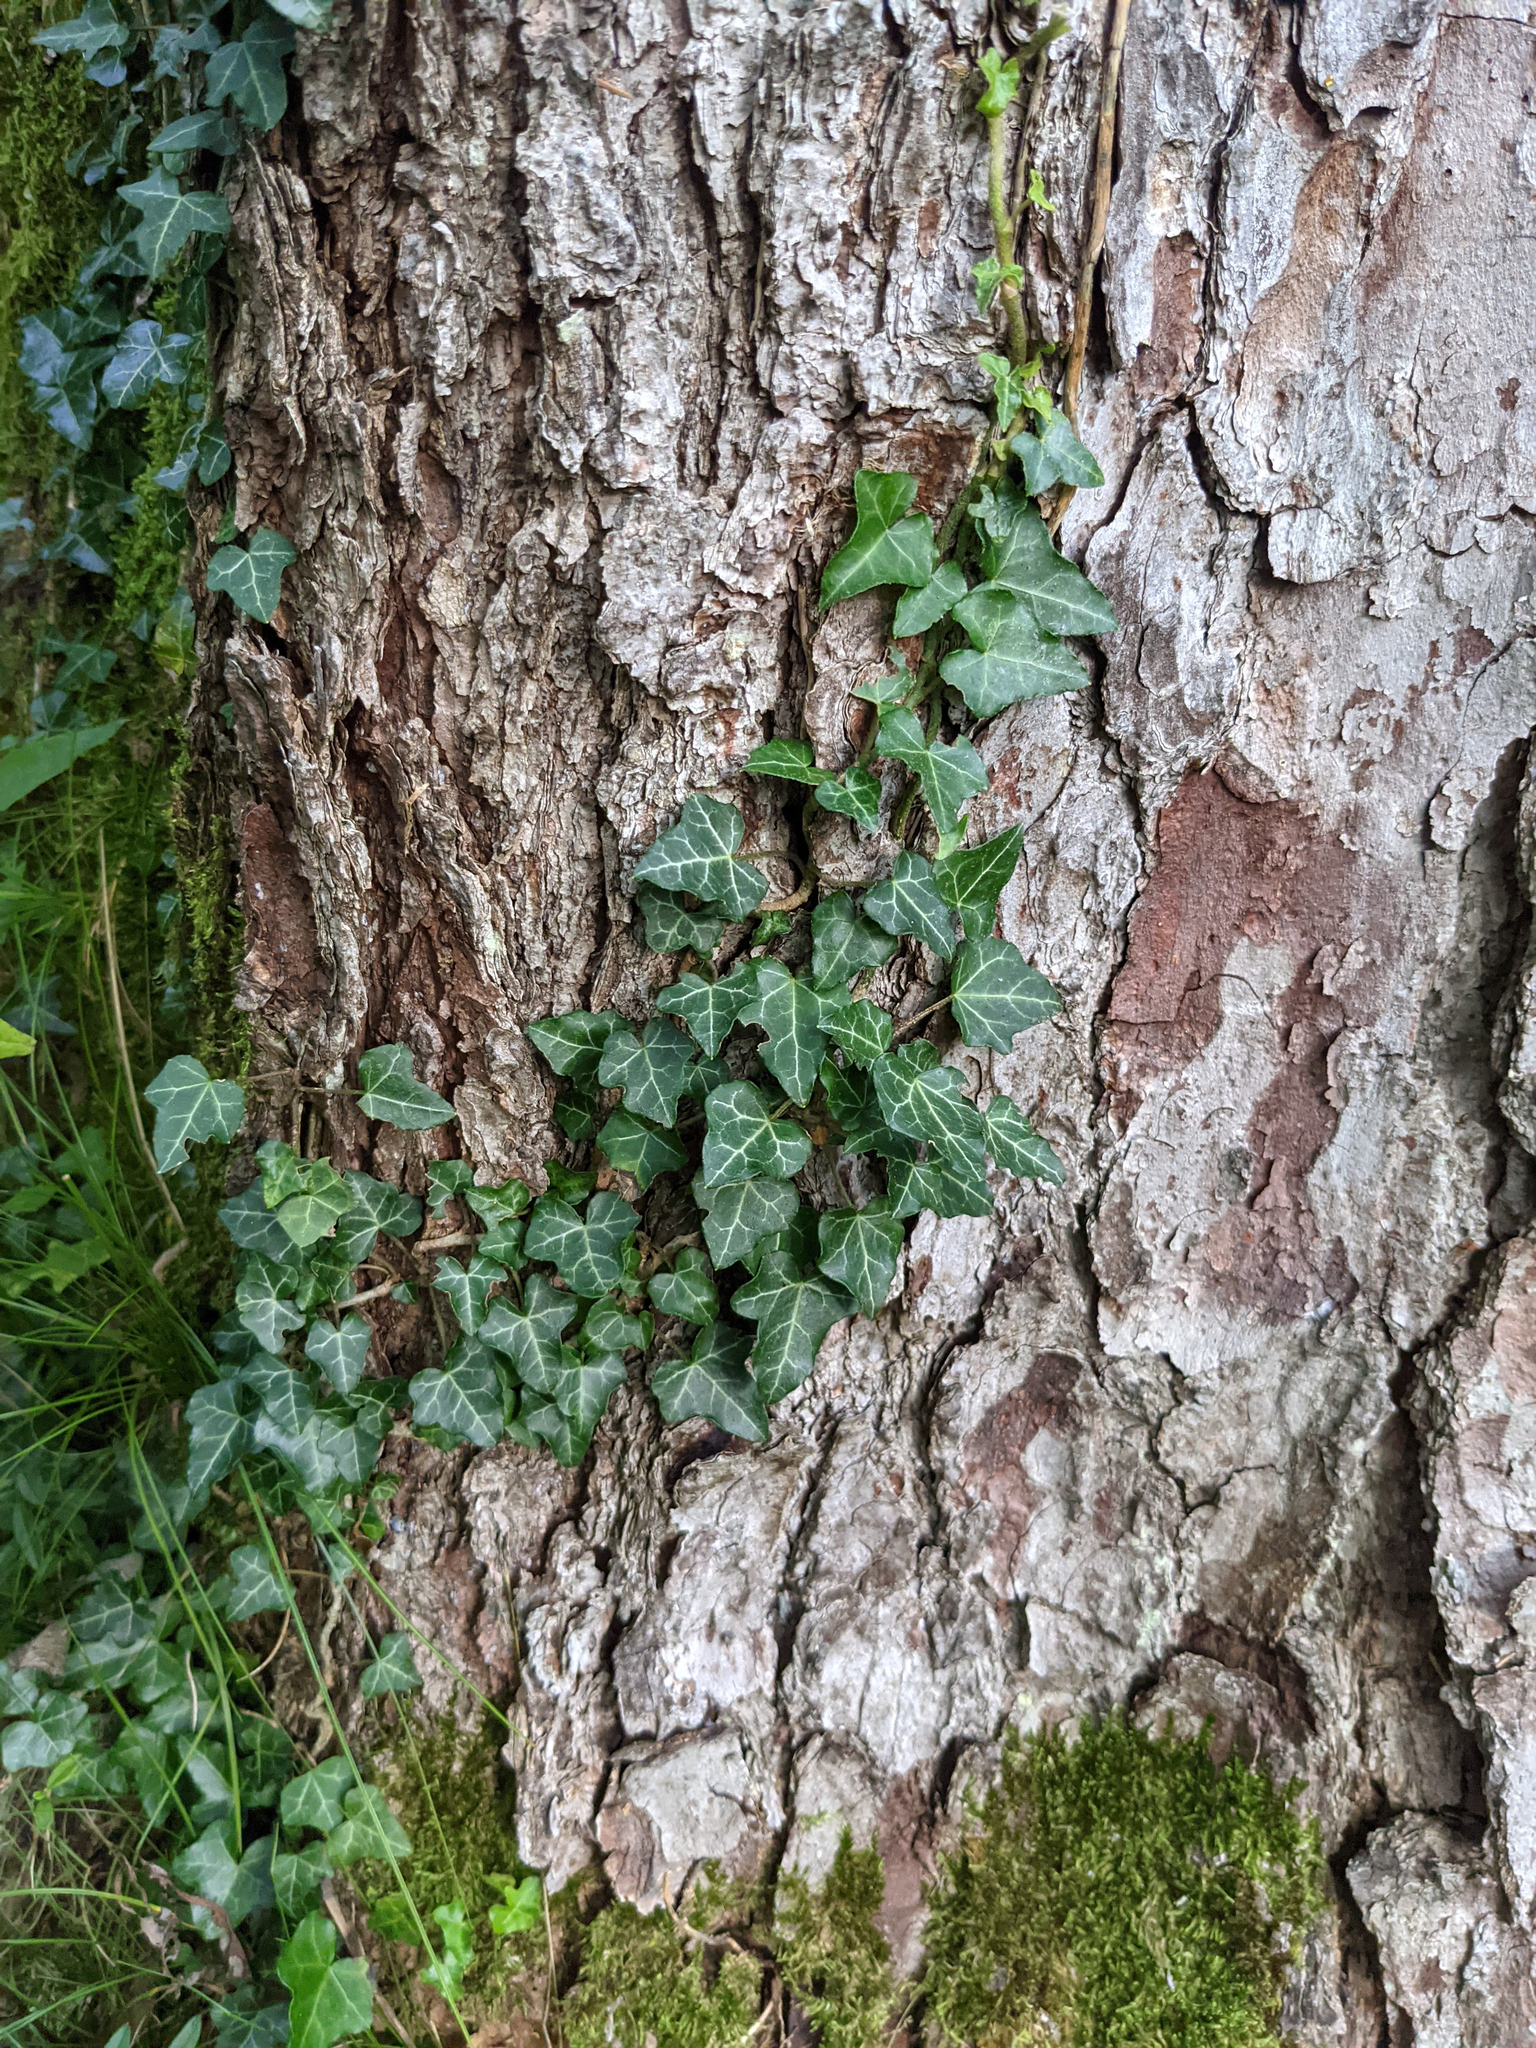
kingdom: Plantae
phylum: Tracheophyta
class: Magnoliopsida
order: Apiales
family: Araliaceae
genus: Hedera
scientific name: Hedera helix
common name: Ivy
